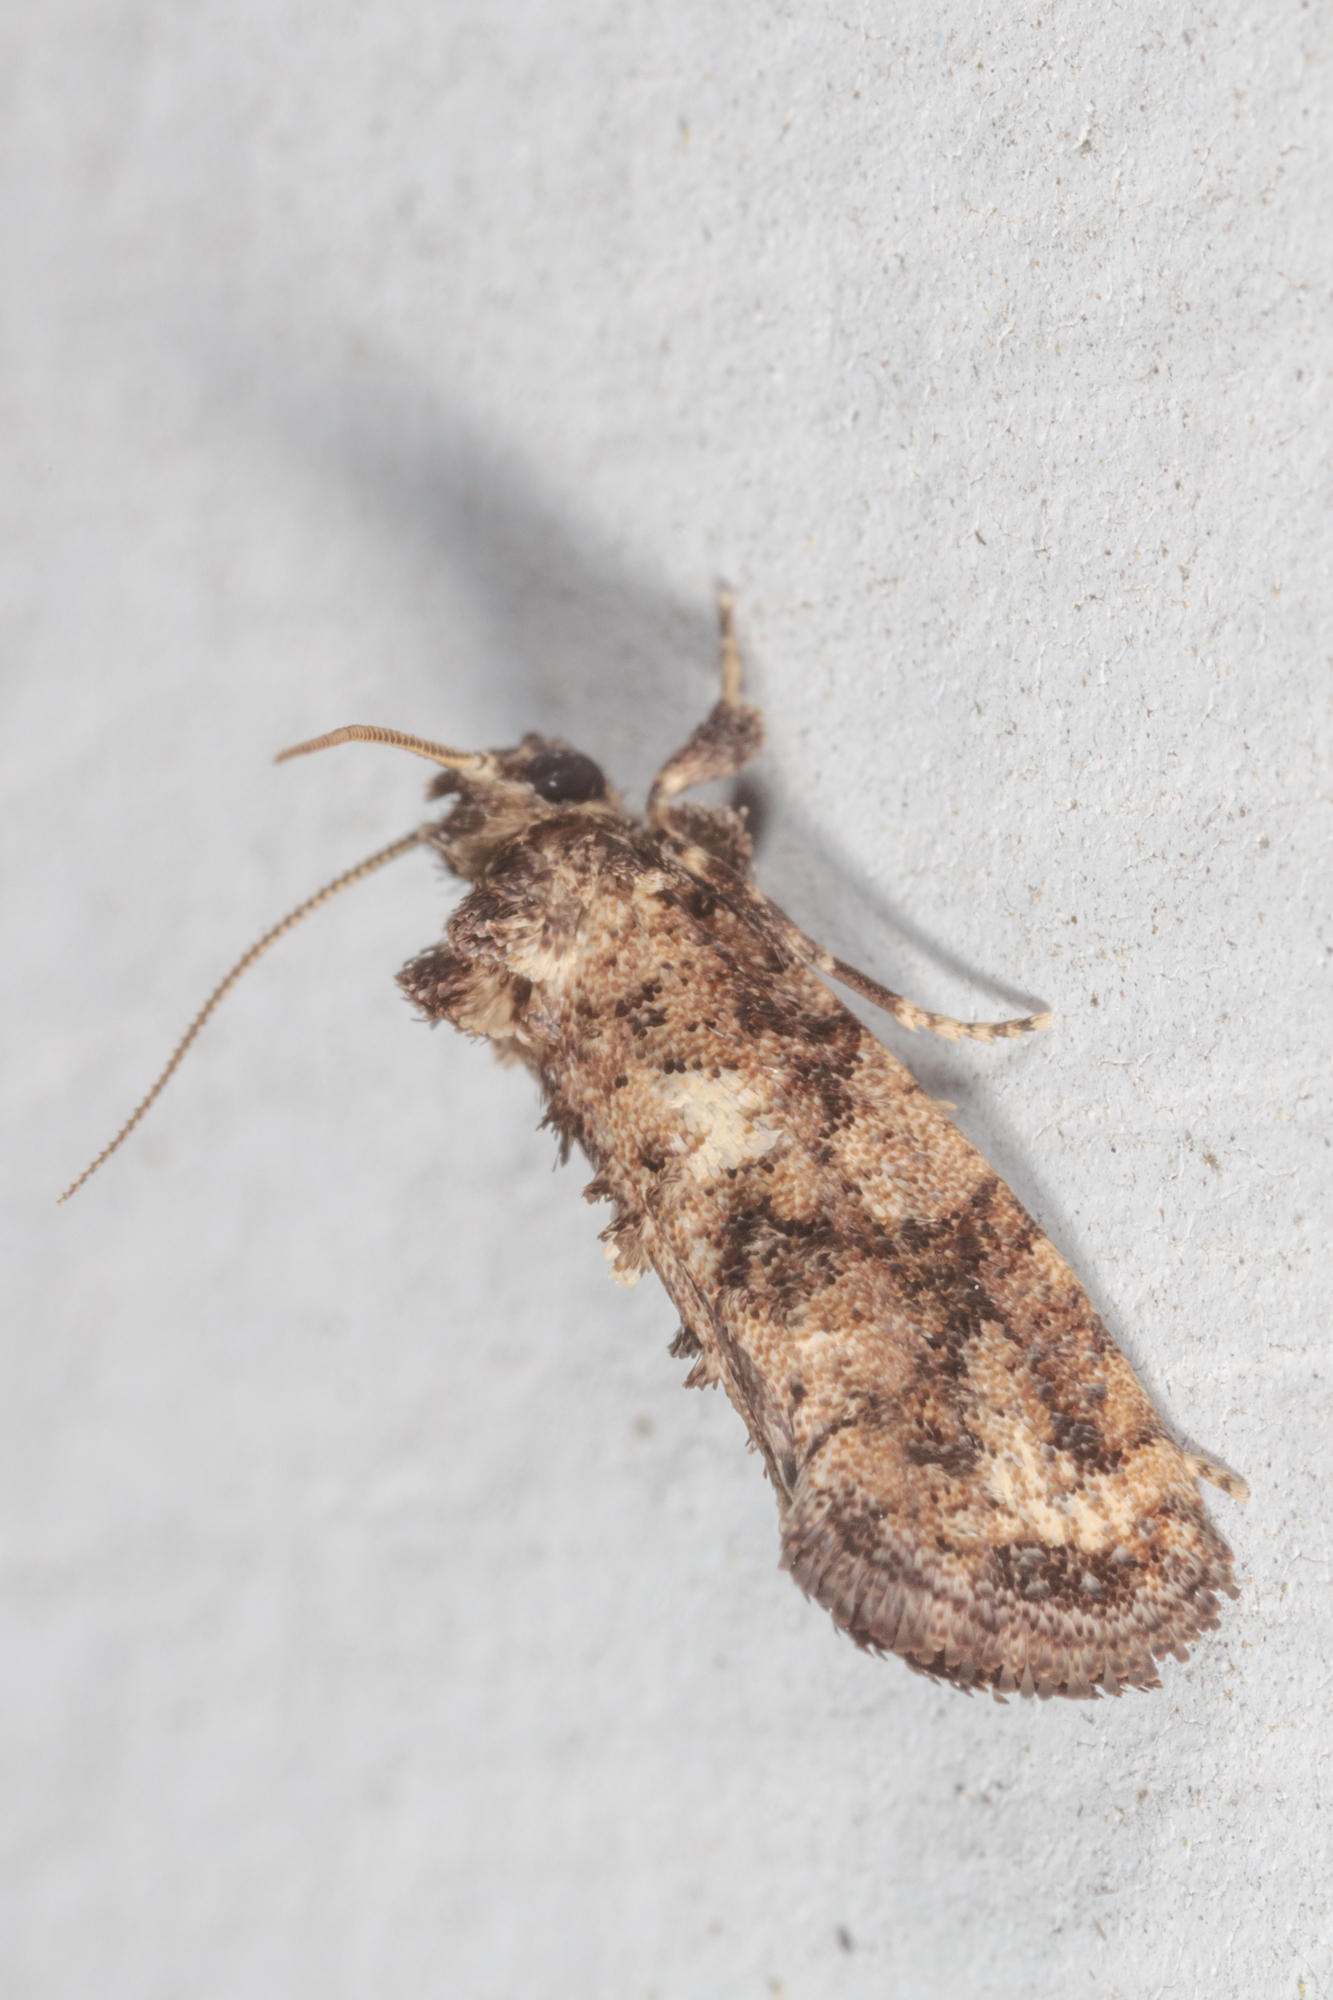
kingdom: Animalia
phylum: Arthropoda
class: Insecta
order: Lepidoptera
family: Tineidae
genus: Acrolophus
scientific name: Acrolophus cressoni
